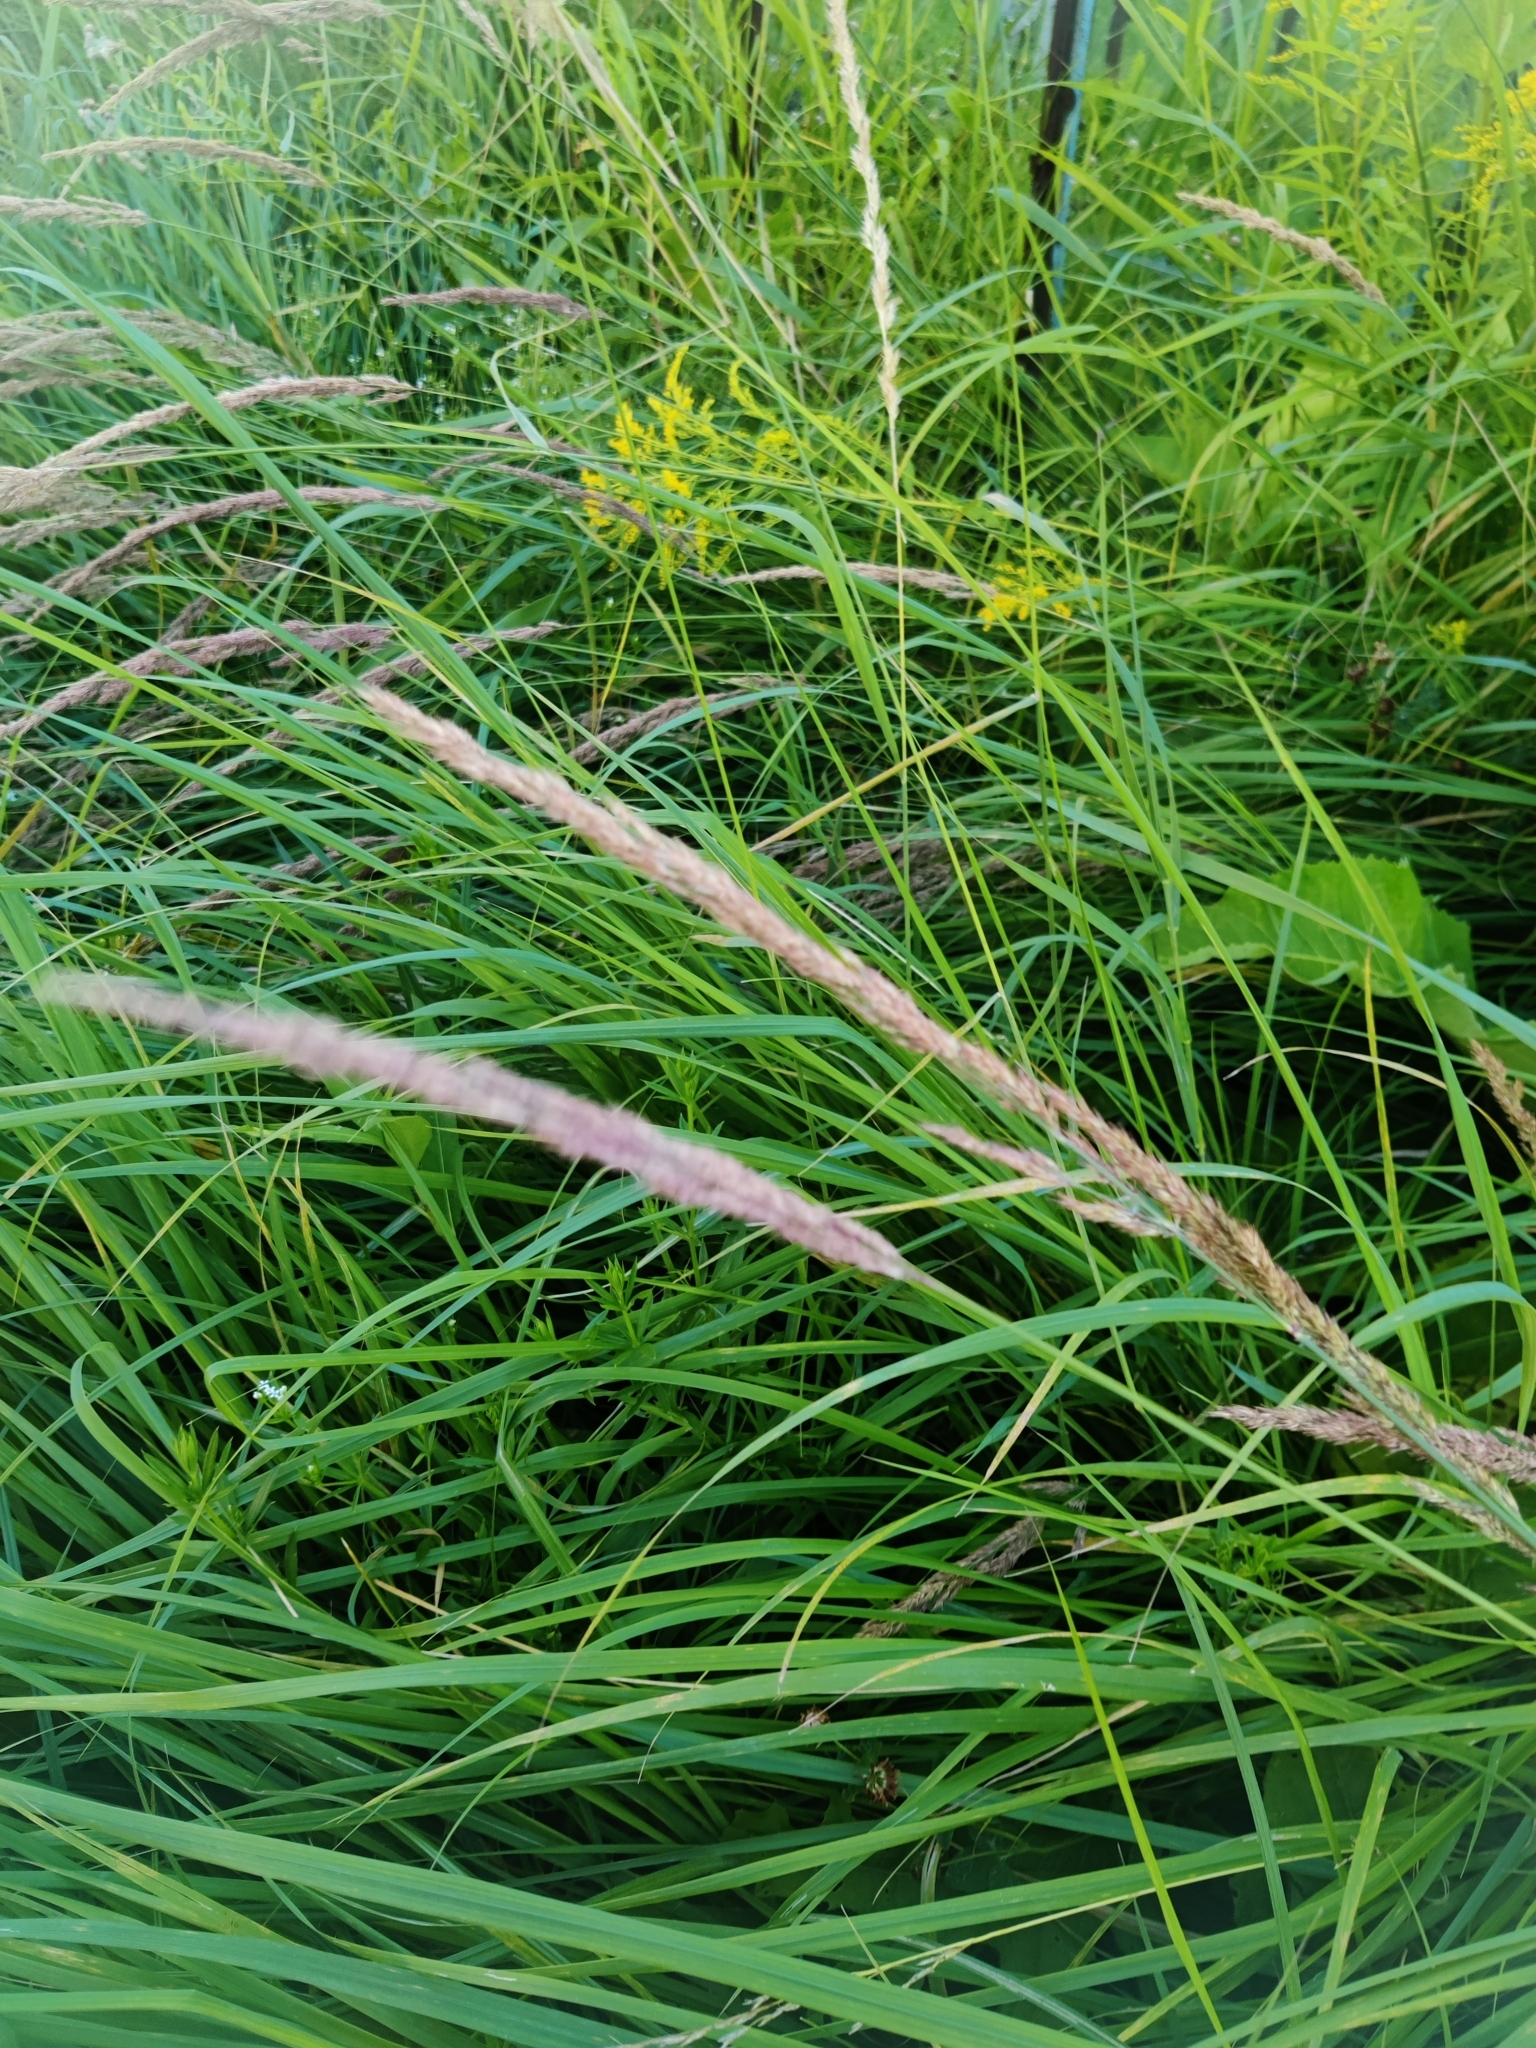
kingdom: Plantae
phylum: Tracheophyta
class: Liliopsida
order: Poales
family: Poaceae
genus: Calamagrostis
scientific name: Calamagrostis epigejos
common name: Wood small-reed
